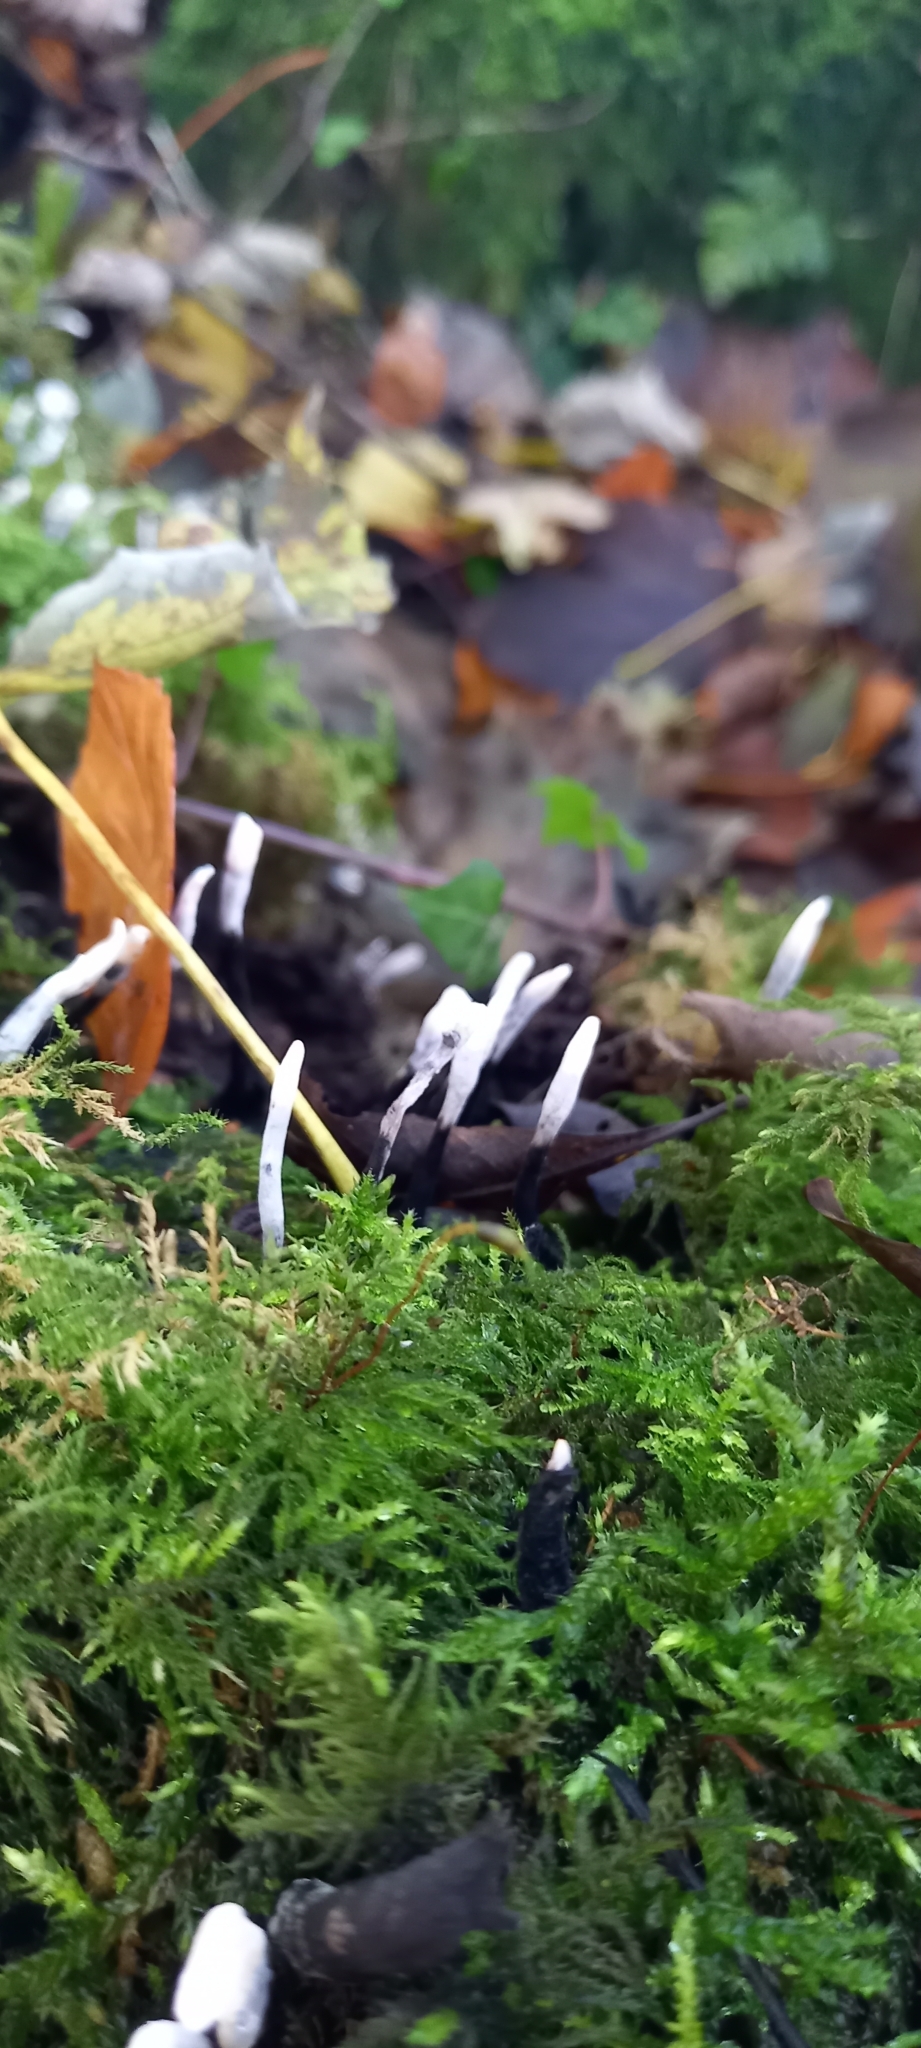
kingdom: Fungi
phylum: Ascomycota
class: Sordariomycetes
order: Xylariales
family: Xylariaceae
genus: Xylaria
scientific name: Xylaria hypoxylon
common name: Candle-snuff fungus
